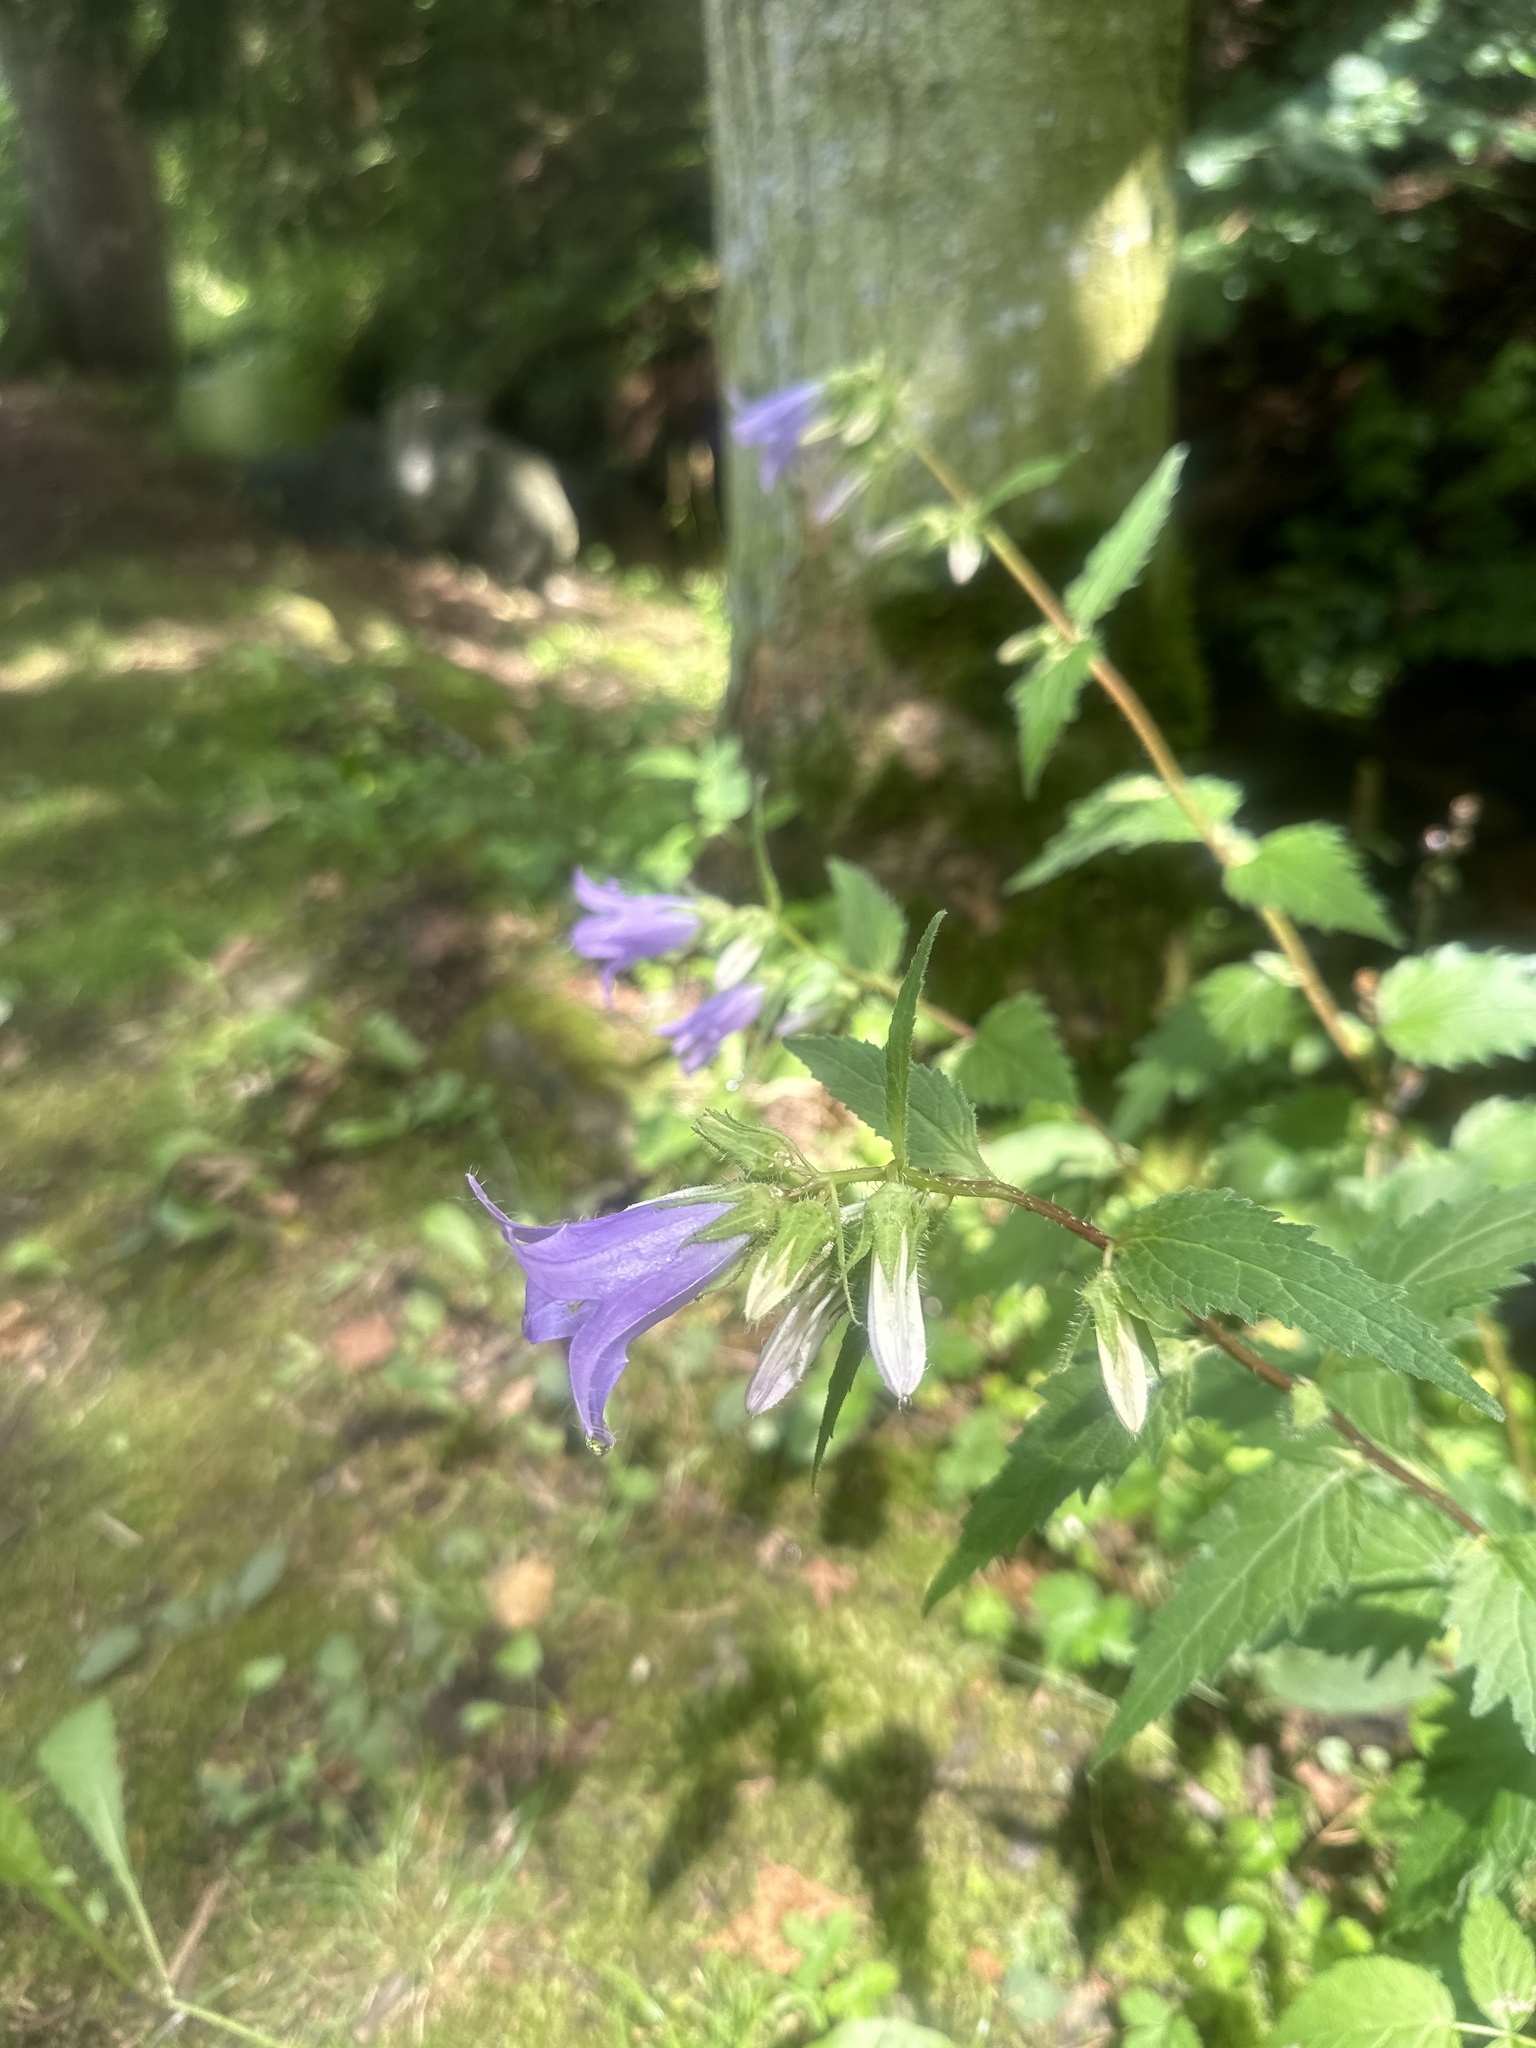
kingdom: Plantae
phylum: Tracheophyta
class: Magnoliopsida
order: Asterales
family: Campanulaceae
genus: Campanula
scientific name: Campanula trachelium
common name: Nettle-leaved bellflower
